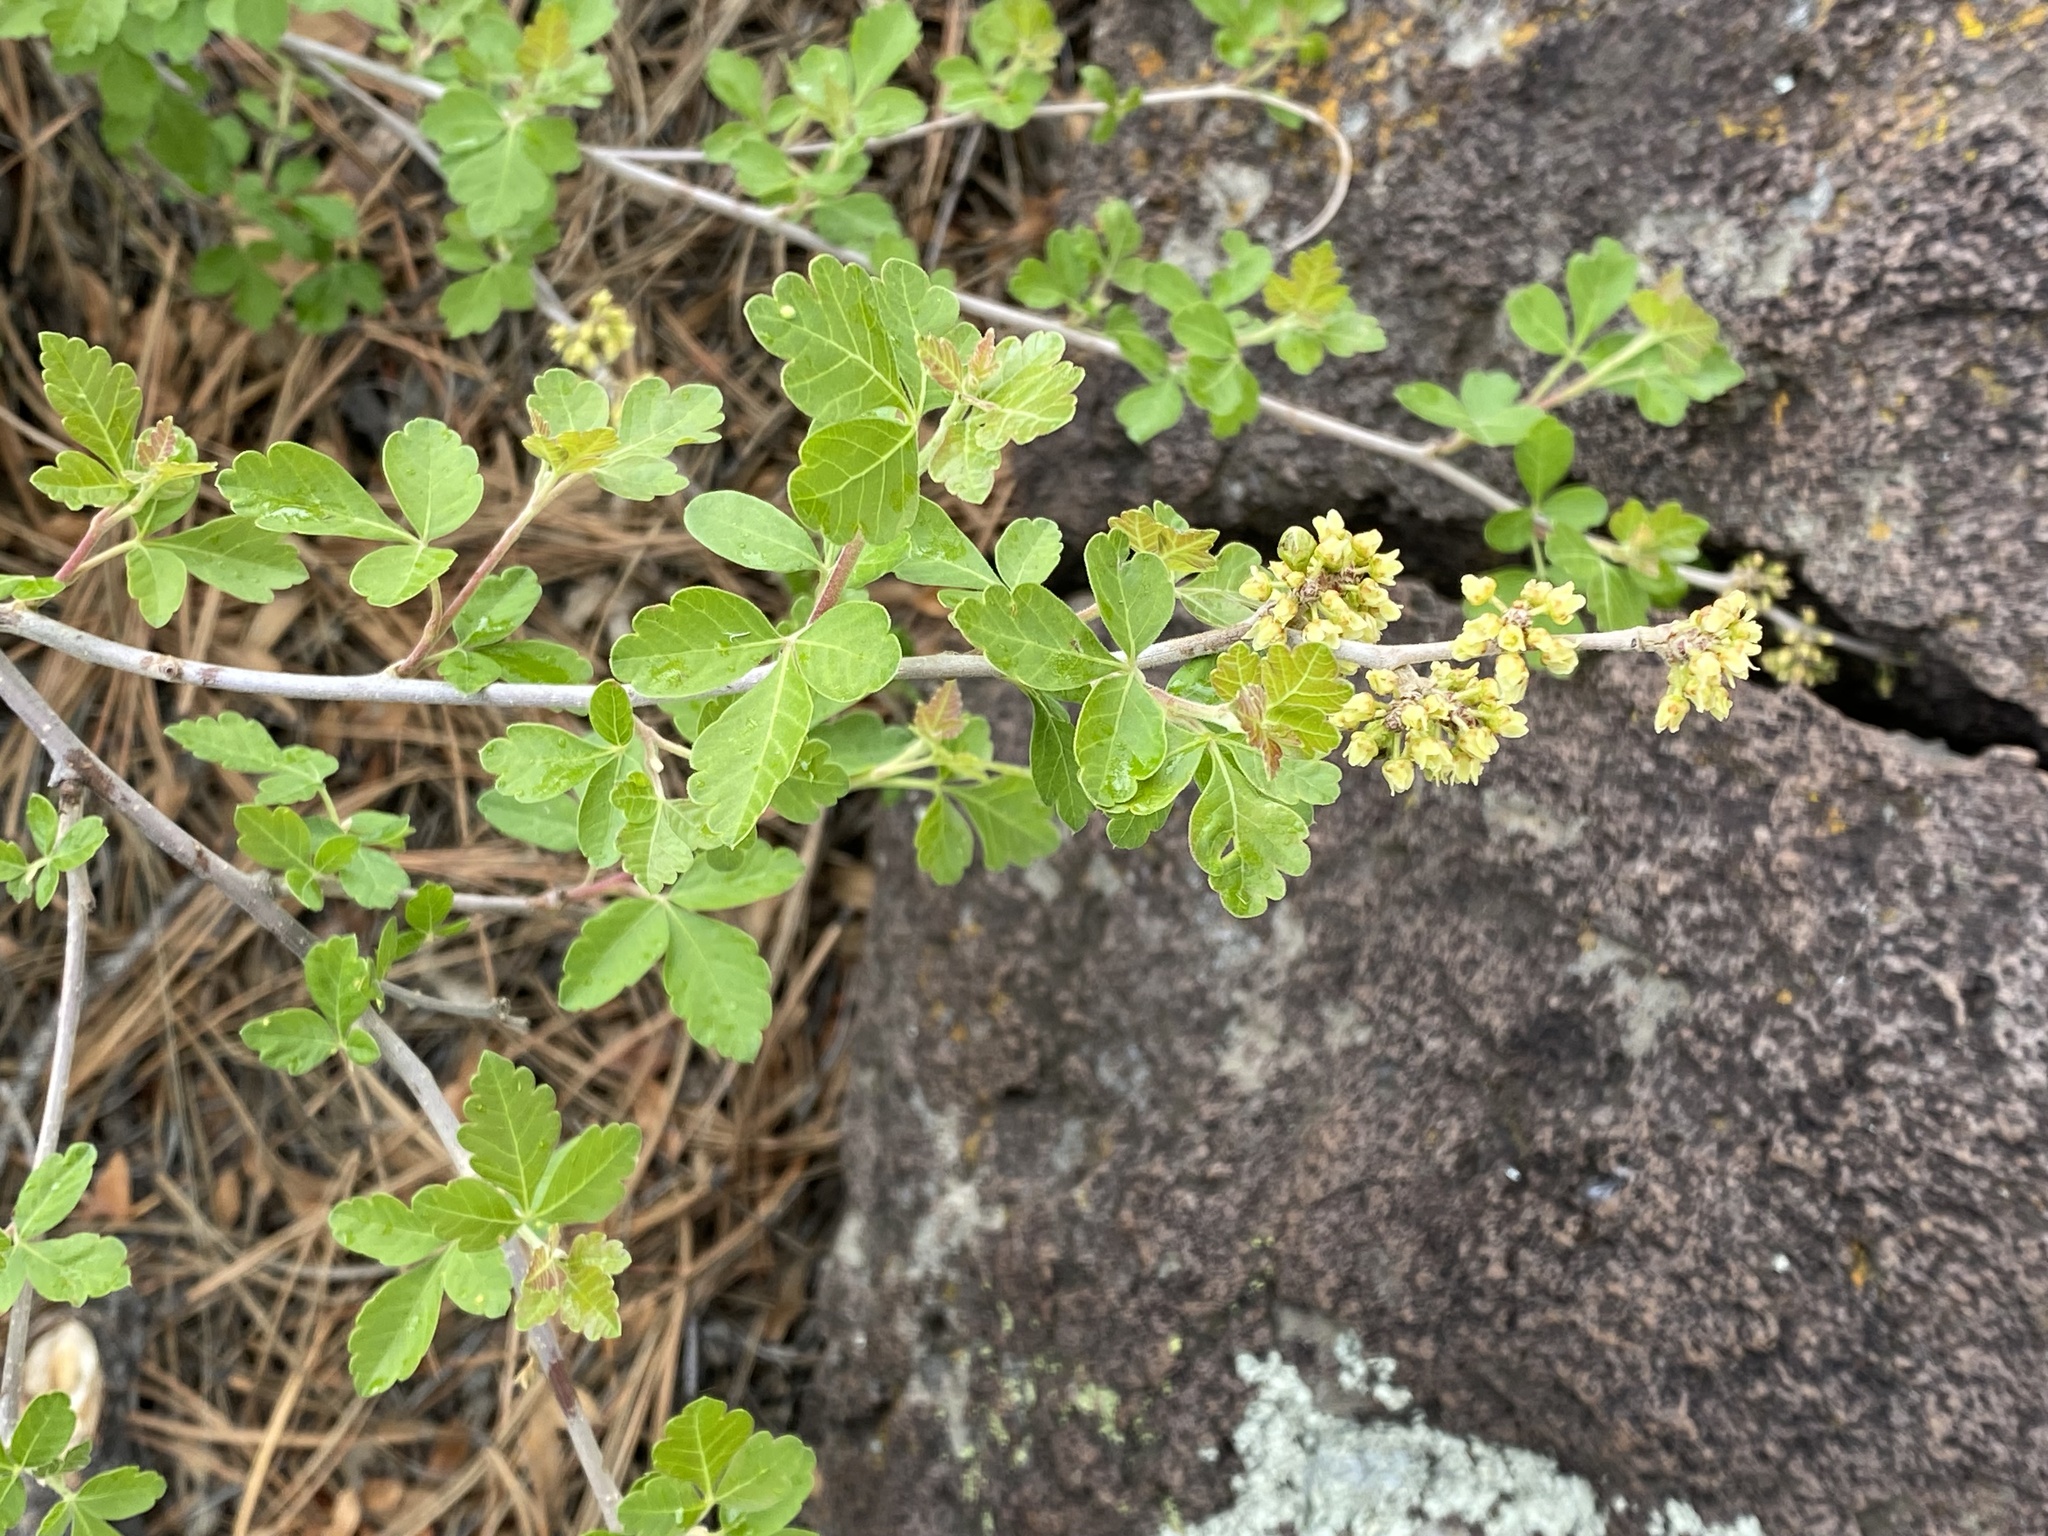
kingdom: Plantae
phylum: Tracheophyta
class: Magnoliopsida
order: Sapindales
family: Anacardiaceae
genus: Rhus
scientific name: Rhus trilobata
